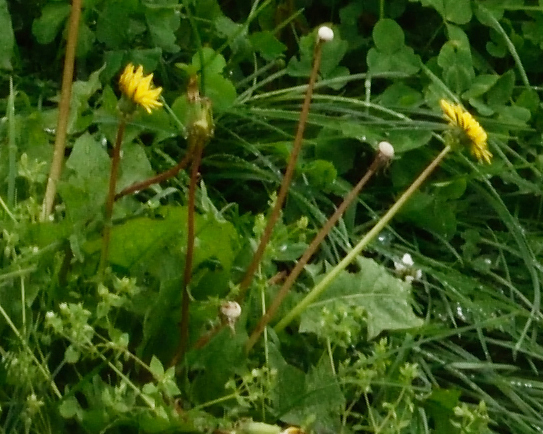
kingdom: Plantae
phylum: Tracheophyta
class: Magnoliopsida
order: Asterales
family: Asteraceae
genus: Taraxacum
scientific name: Taraxacum officinale
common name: Common dandelion
